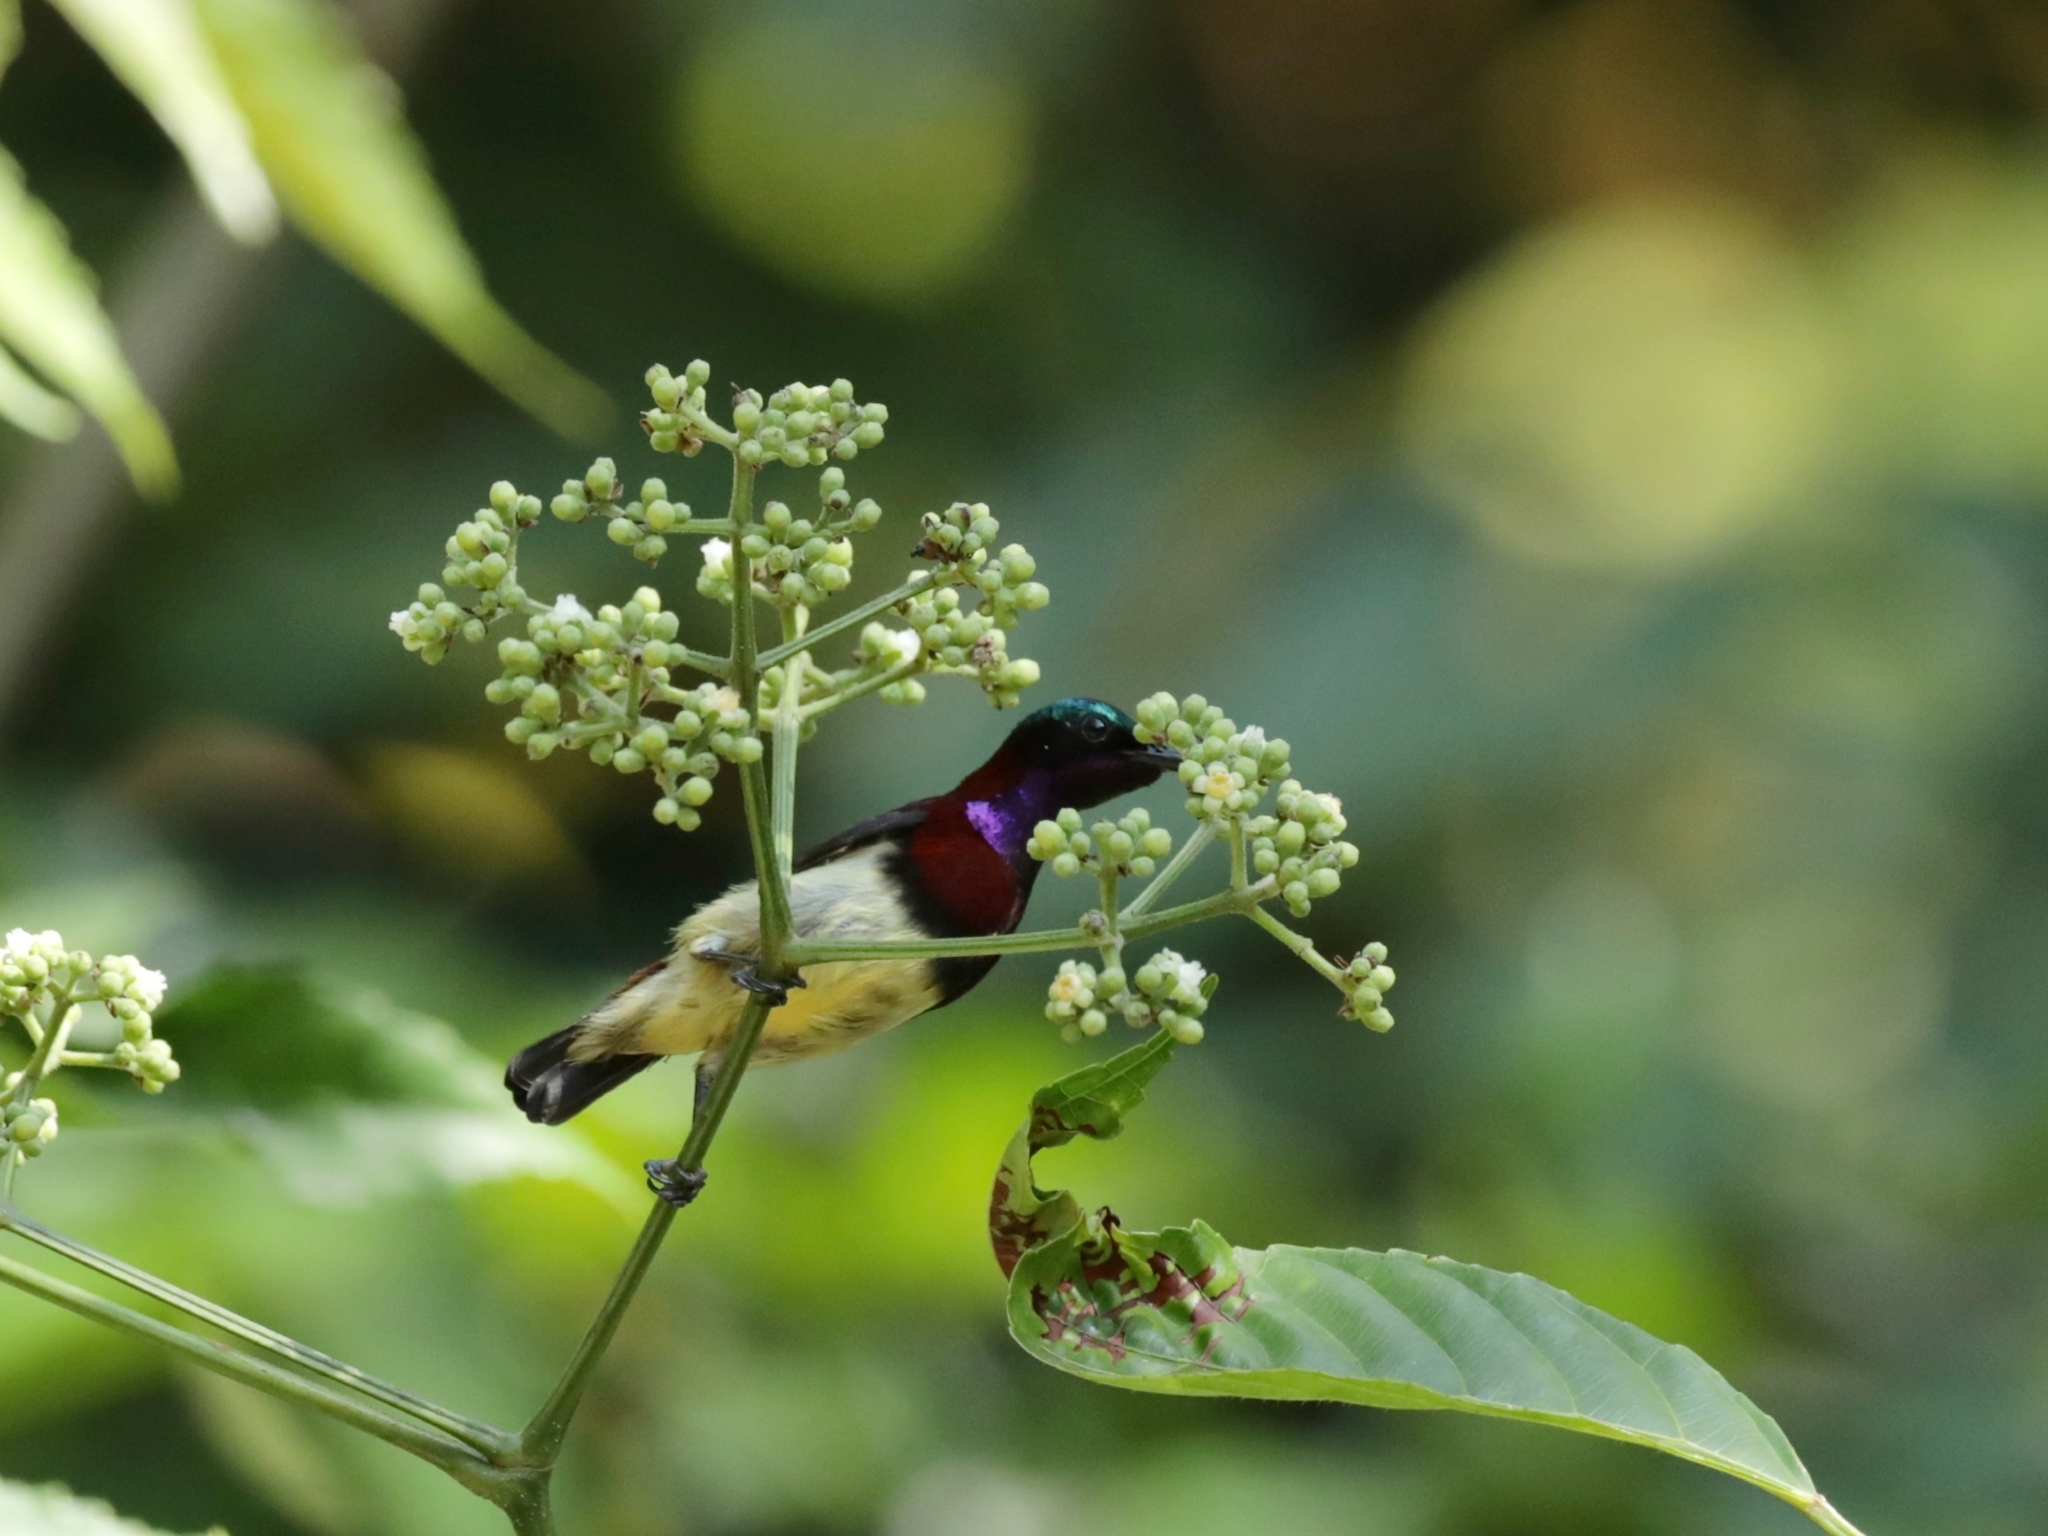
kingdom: Animalia
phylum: Chordata
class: Aves
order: Passeriformes
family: Nectariniidae
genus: Leptocoma
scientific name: Leptocoma minima
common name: Crimson-backed sunbird
